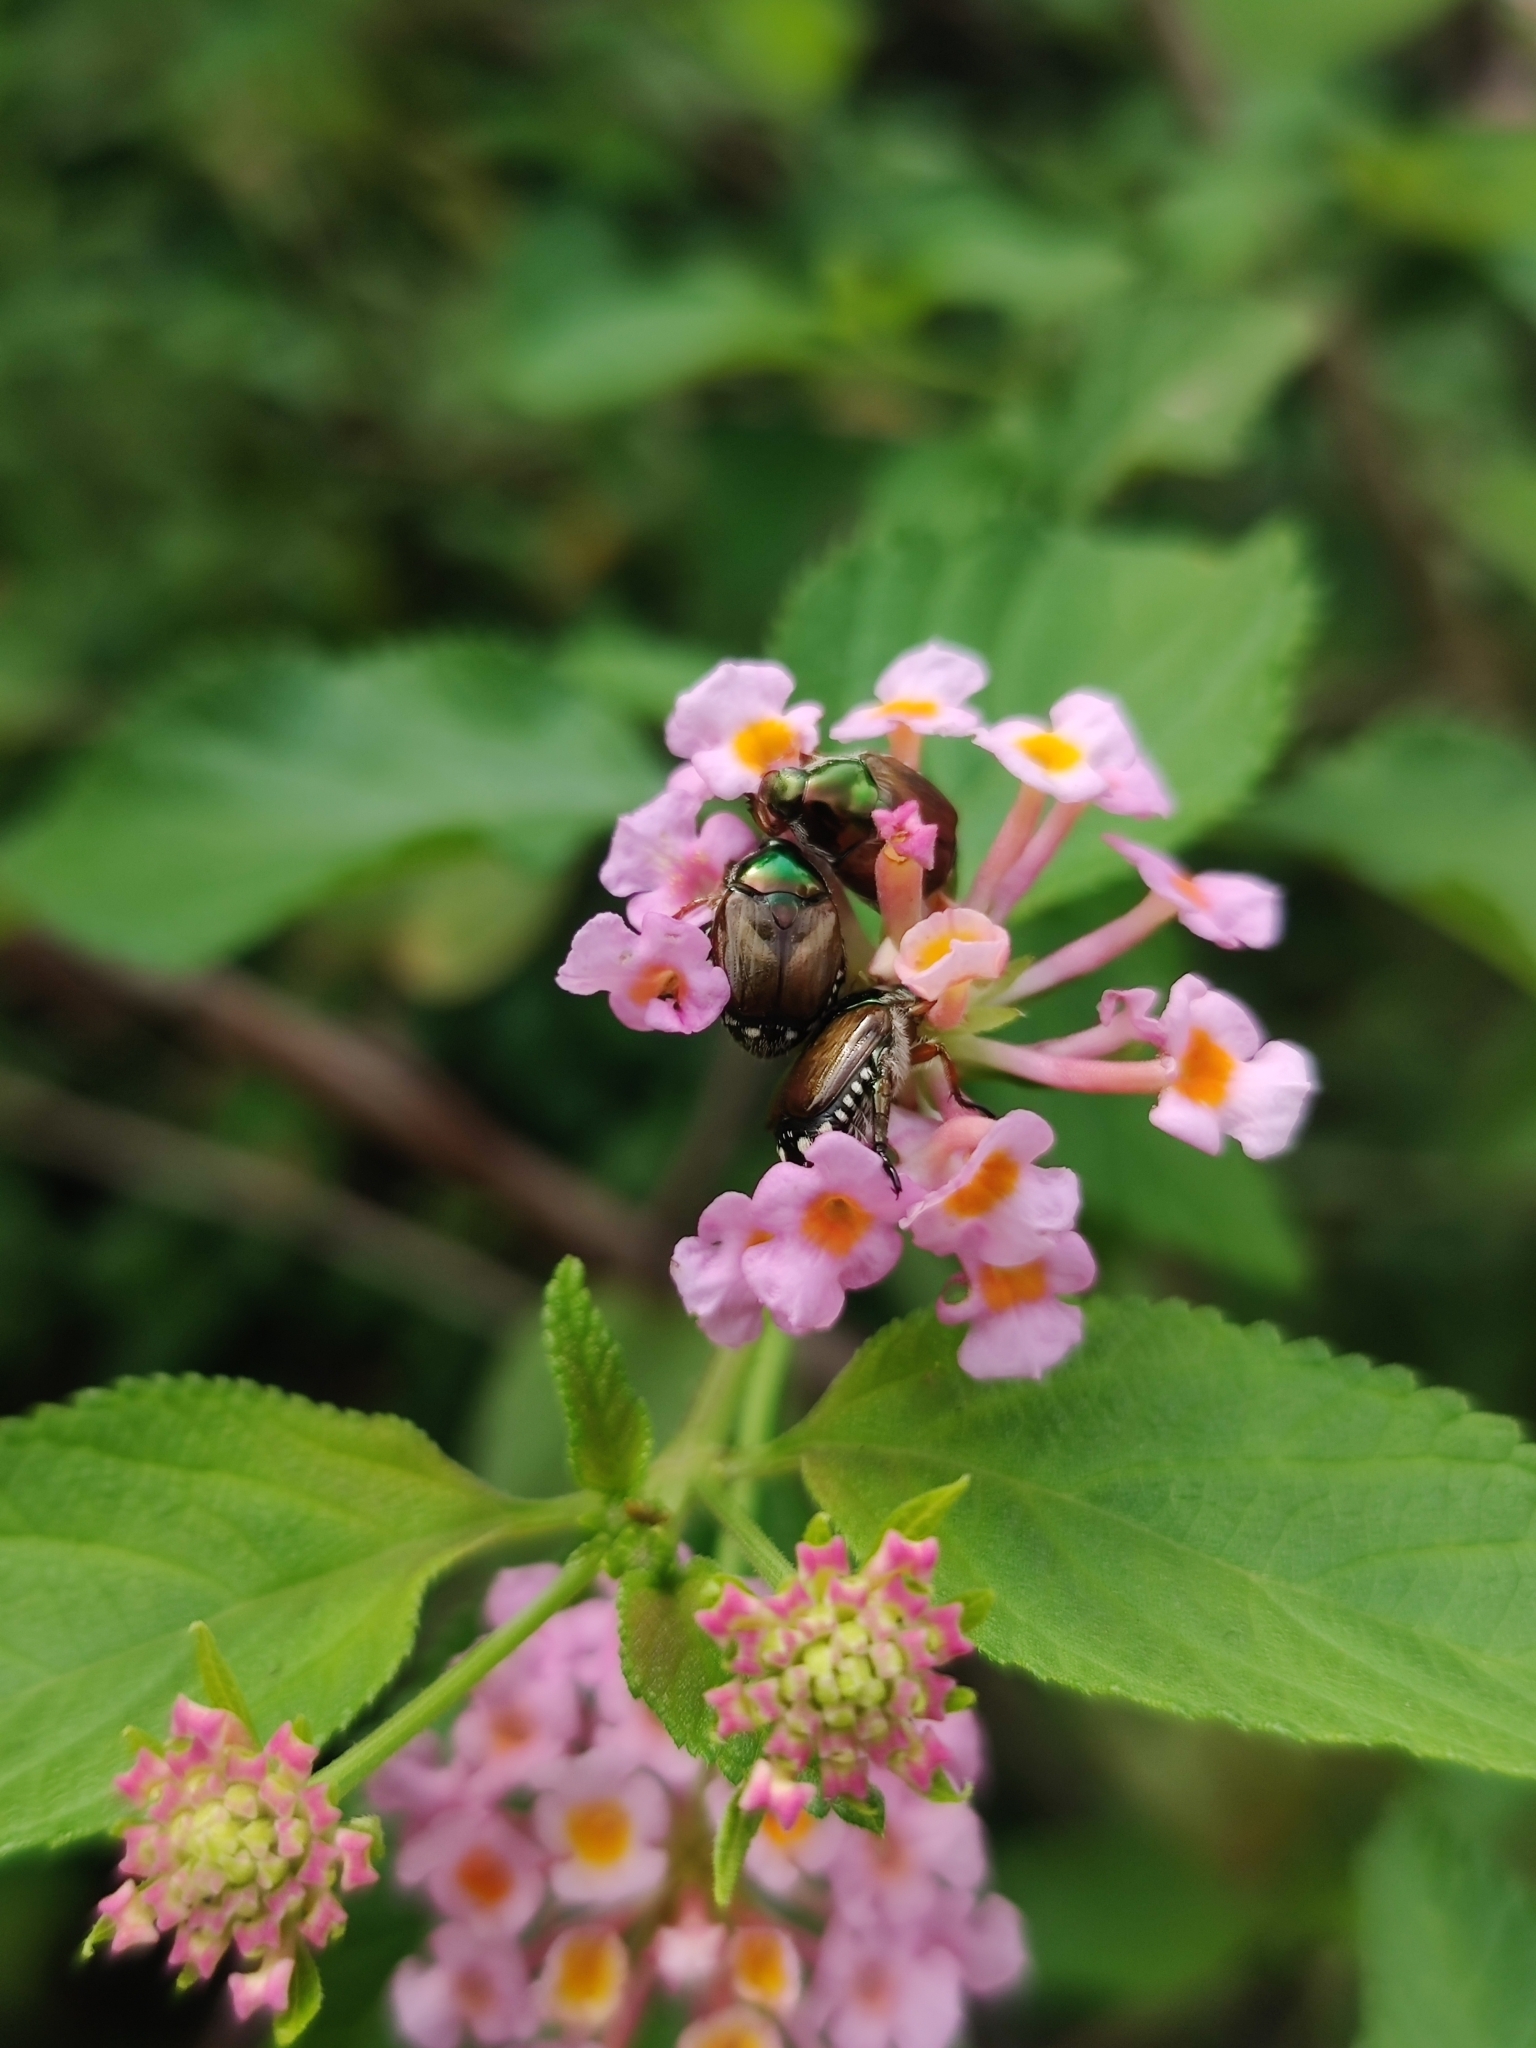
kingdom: Animalia
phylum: Arthropoda
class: Insecta
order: Coleoptera
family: Scarabaeidae
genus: Popillia
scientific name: Popillia complanata
